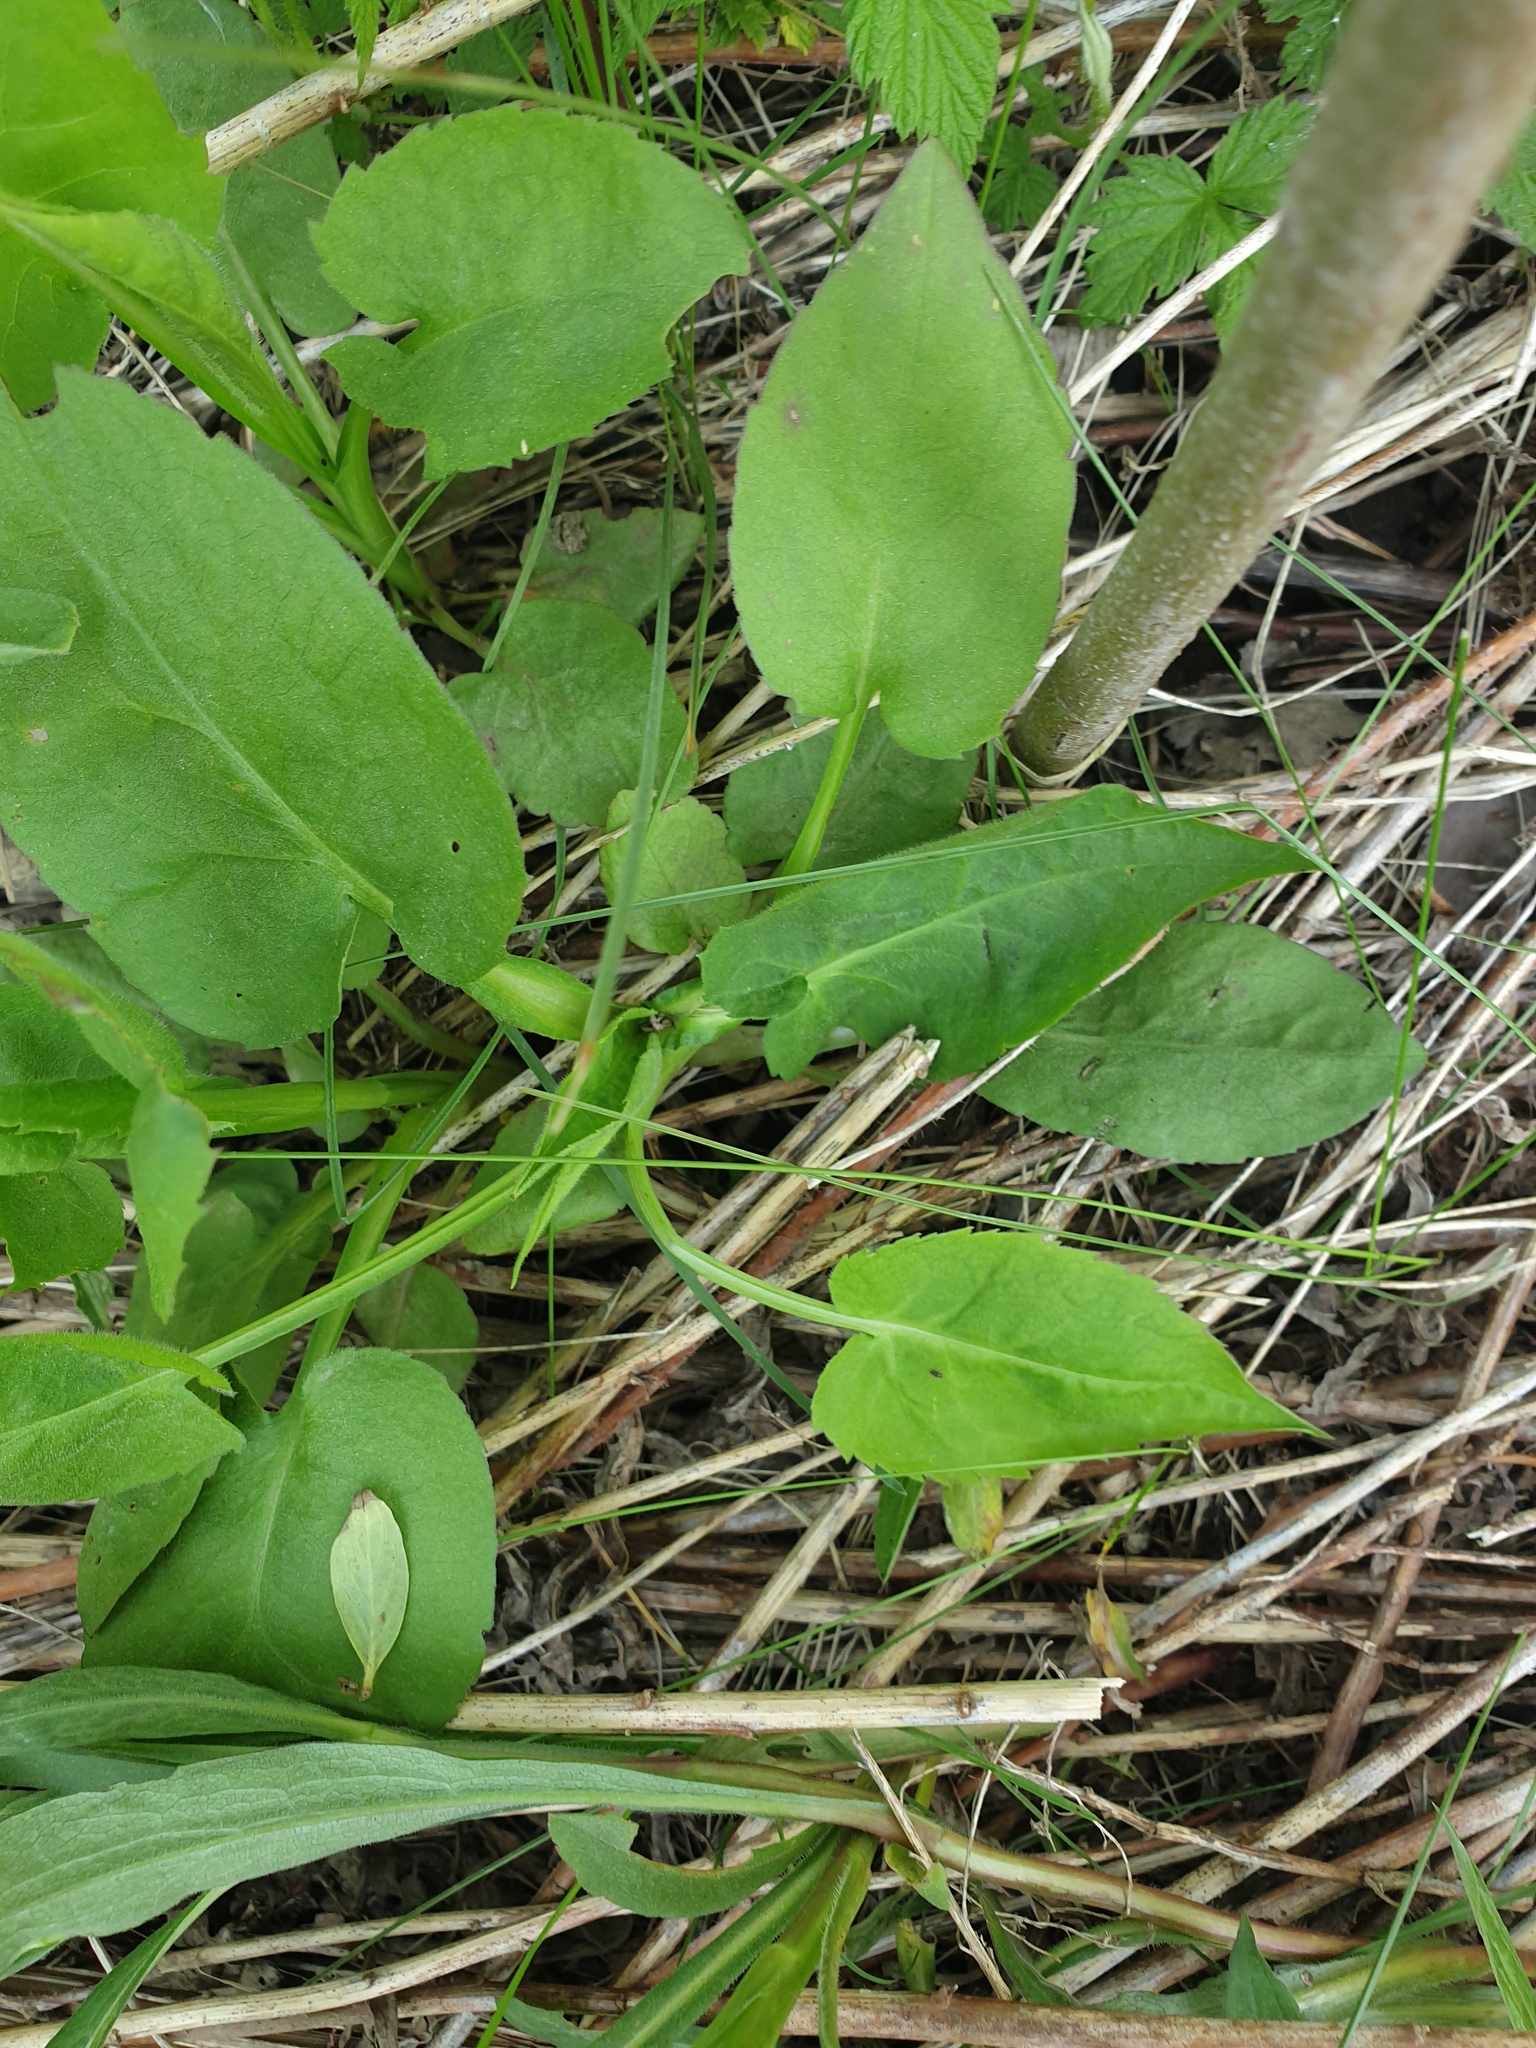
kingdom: Plantae
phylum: Tracheophyta
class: Magnoliopsida
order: Asterales
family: Asteraceae
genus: Symphyotrichum
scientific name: Symphyotrichum urophyllum
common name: Arrow-leaved aster
